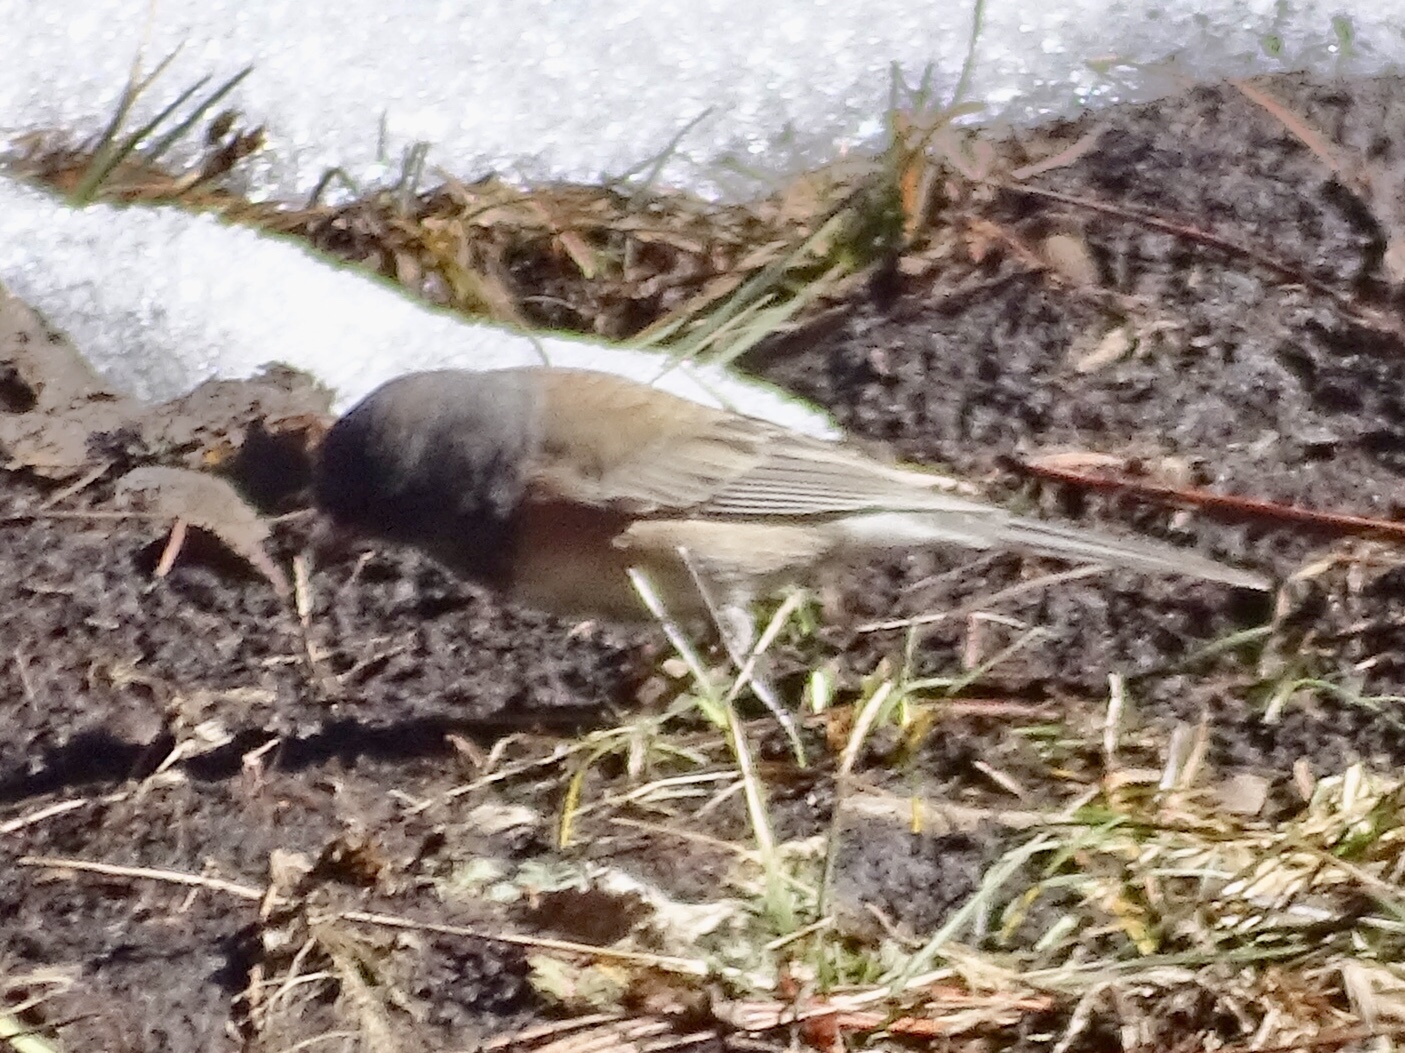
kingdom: Animalia
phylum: Chordata
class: Aves
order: Passeriformes
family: Passerellidae
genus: Junco
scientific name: Junco hyemalis
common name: Dark-eyed junco
